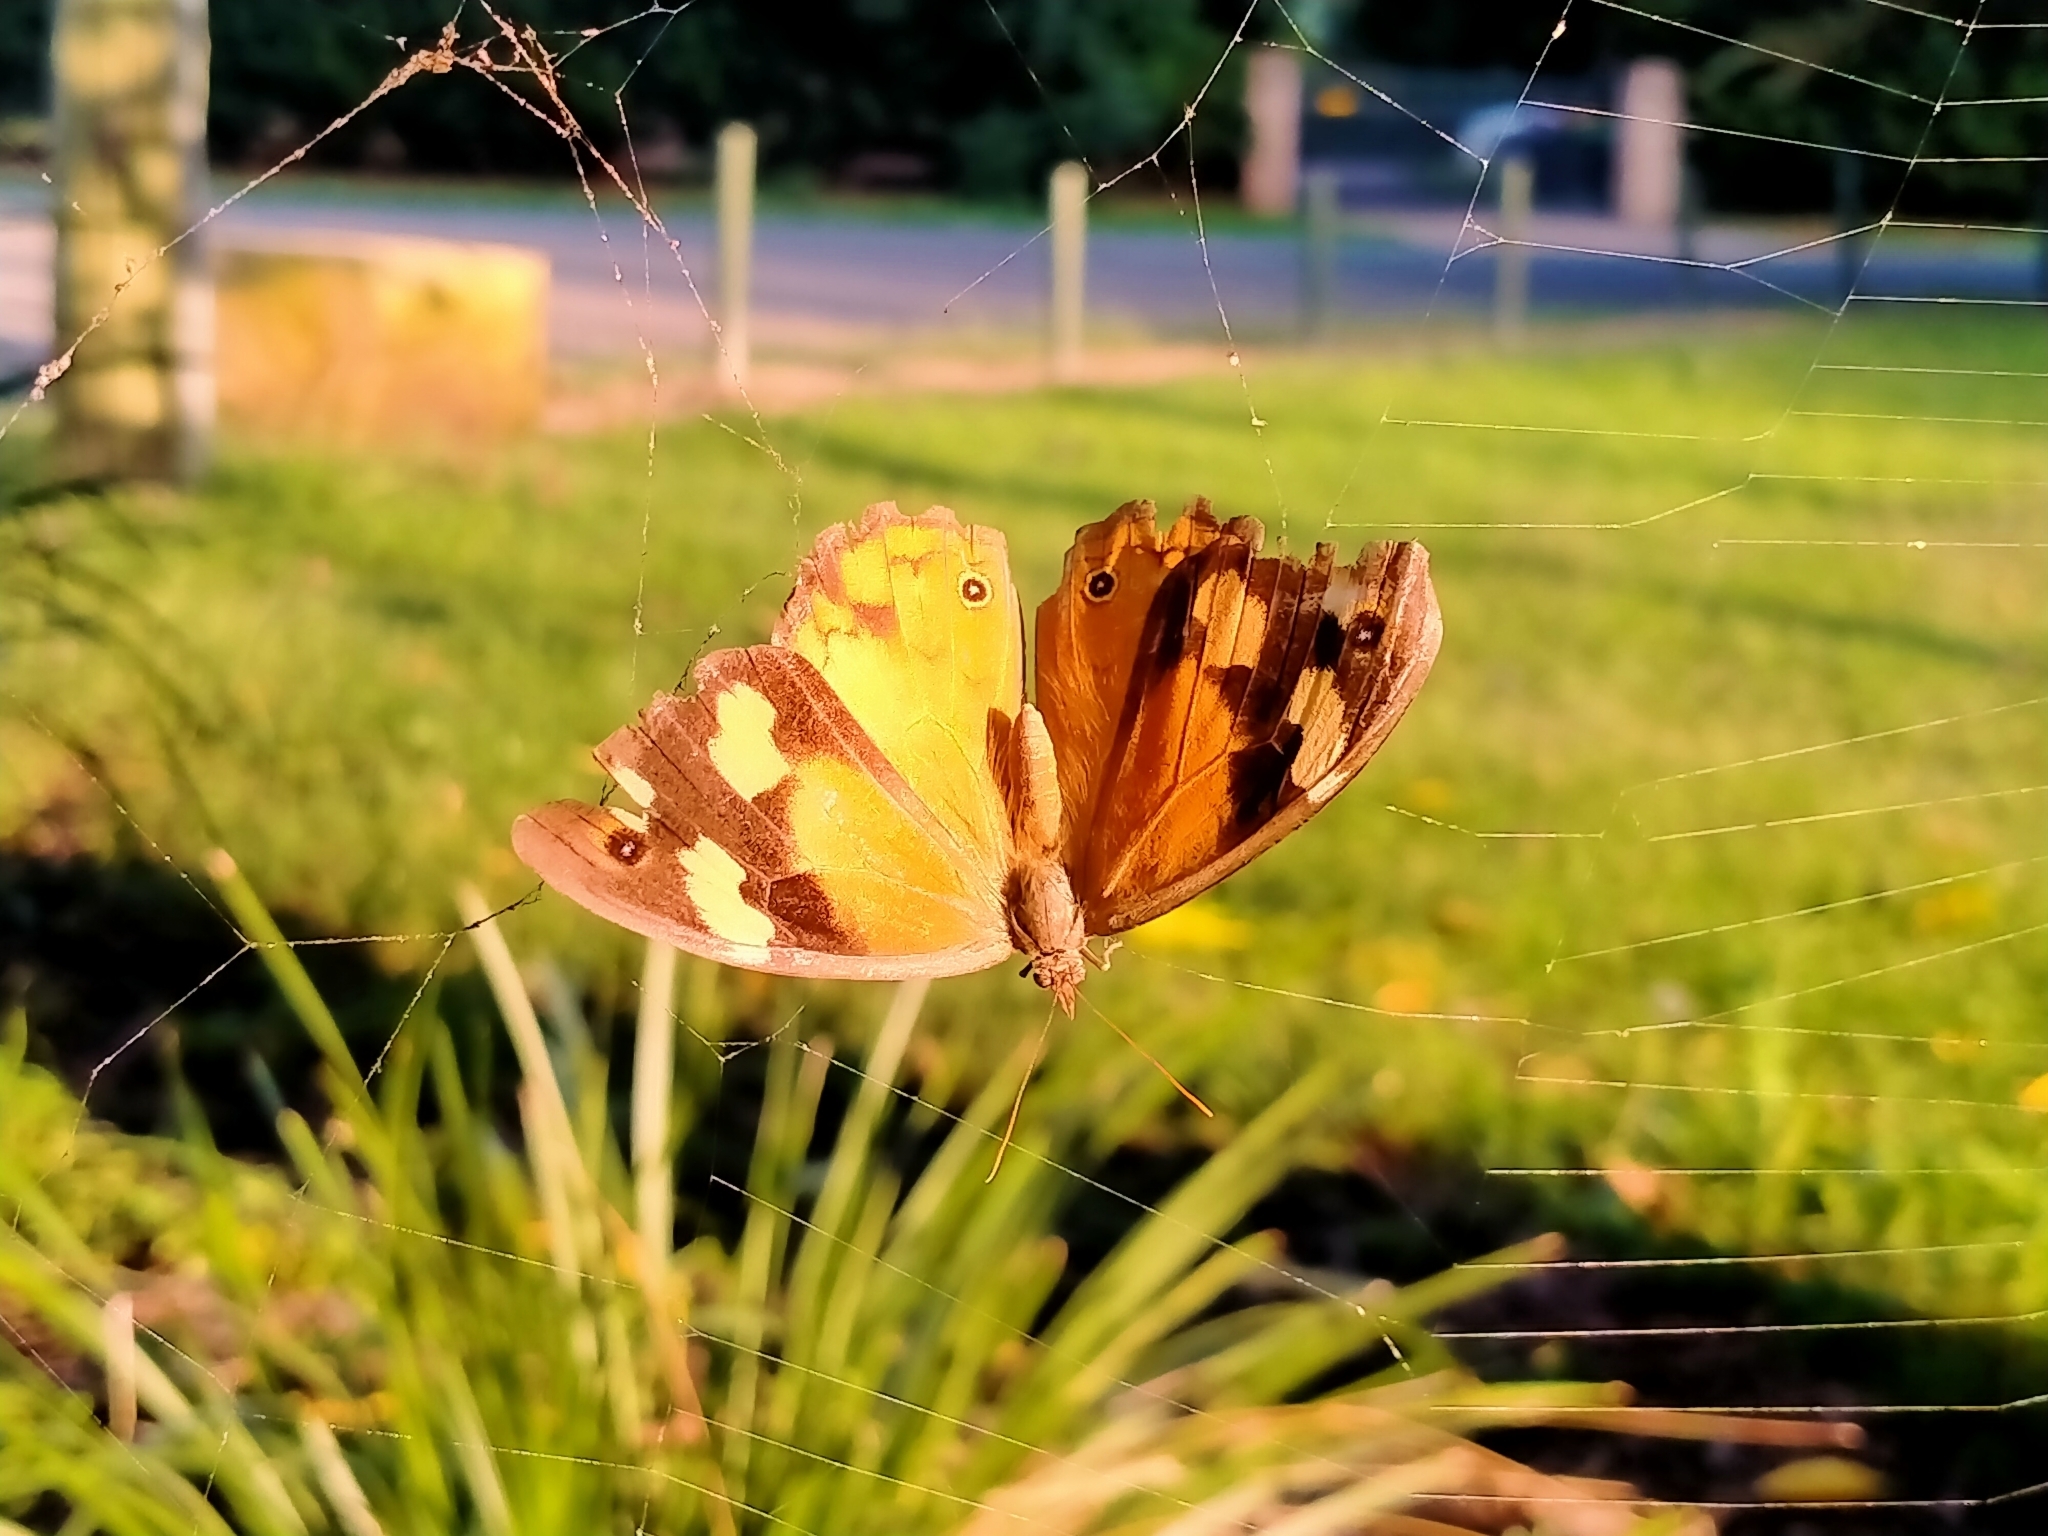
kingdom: Animalia
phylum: Arthropoda
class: Insecta
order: Lepidoptera
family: Nymphalidae
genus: Heteronympha
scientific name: Heteronympha merope
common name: Common brown
